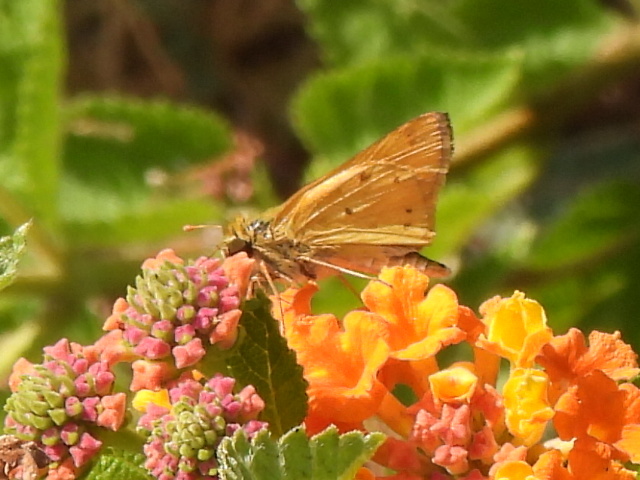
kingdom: Animalia
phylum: Arthropoda
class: Insecta
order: Lepidoptera
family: Hesperiidae
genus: Hylephila
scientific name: Hylephila phyleus
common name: Fiery skipper
